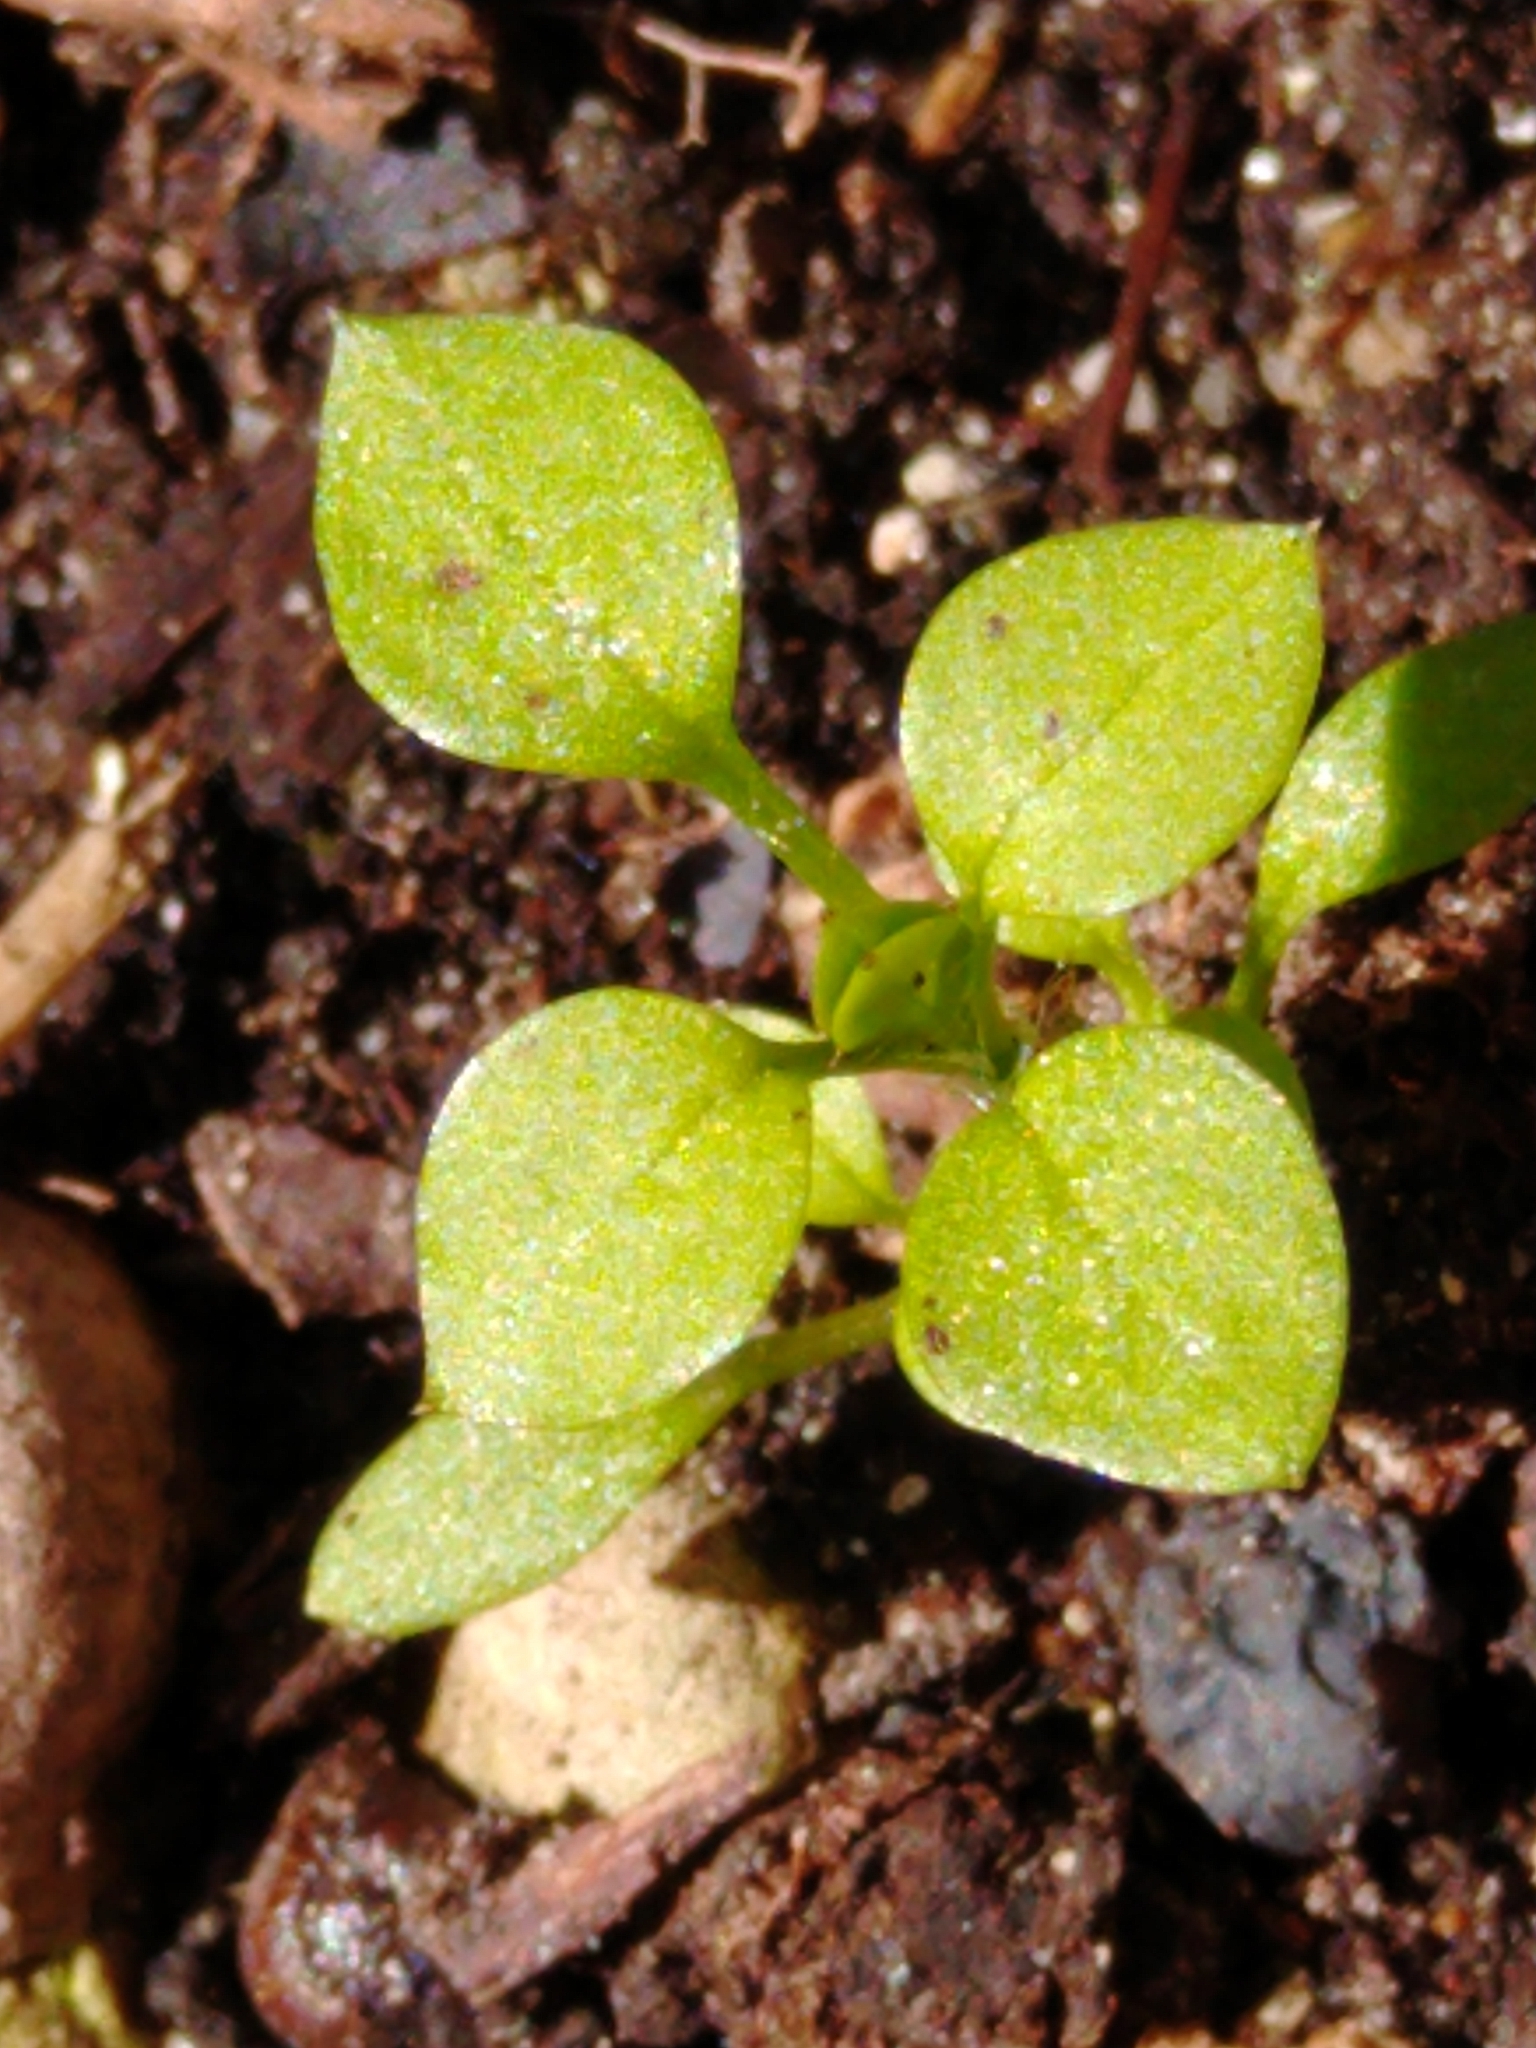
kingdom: Plantae
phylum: Tracheophyta
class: Magnoliopsida
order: Caryophyllales
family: Caryophyllaceae
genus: Stellaria
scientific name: Stellaria media
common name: Common chickweed
